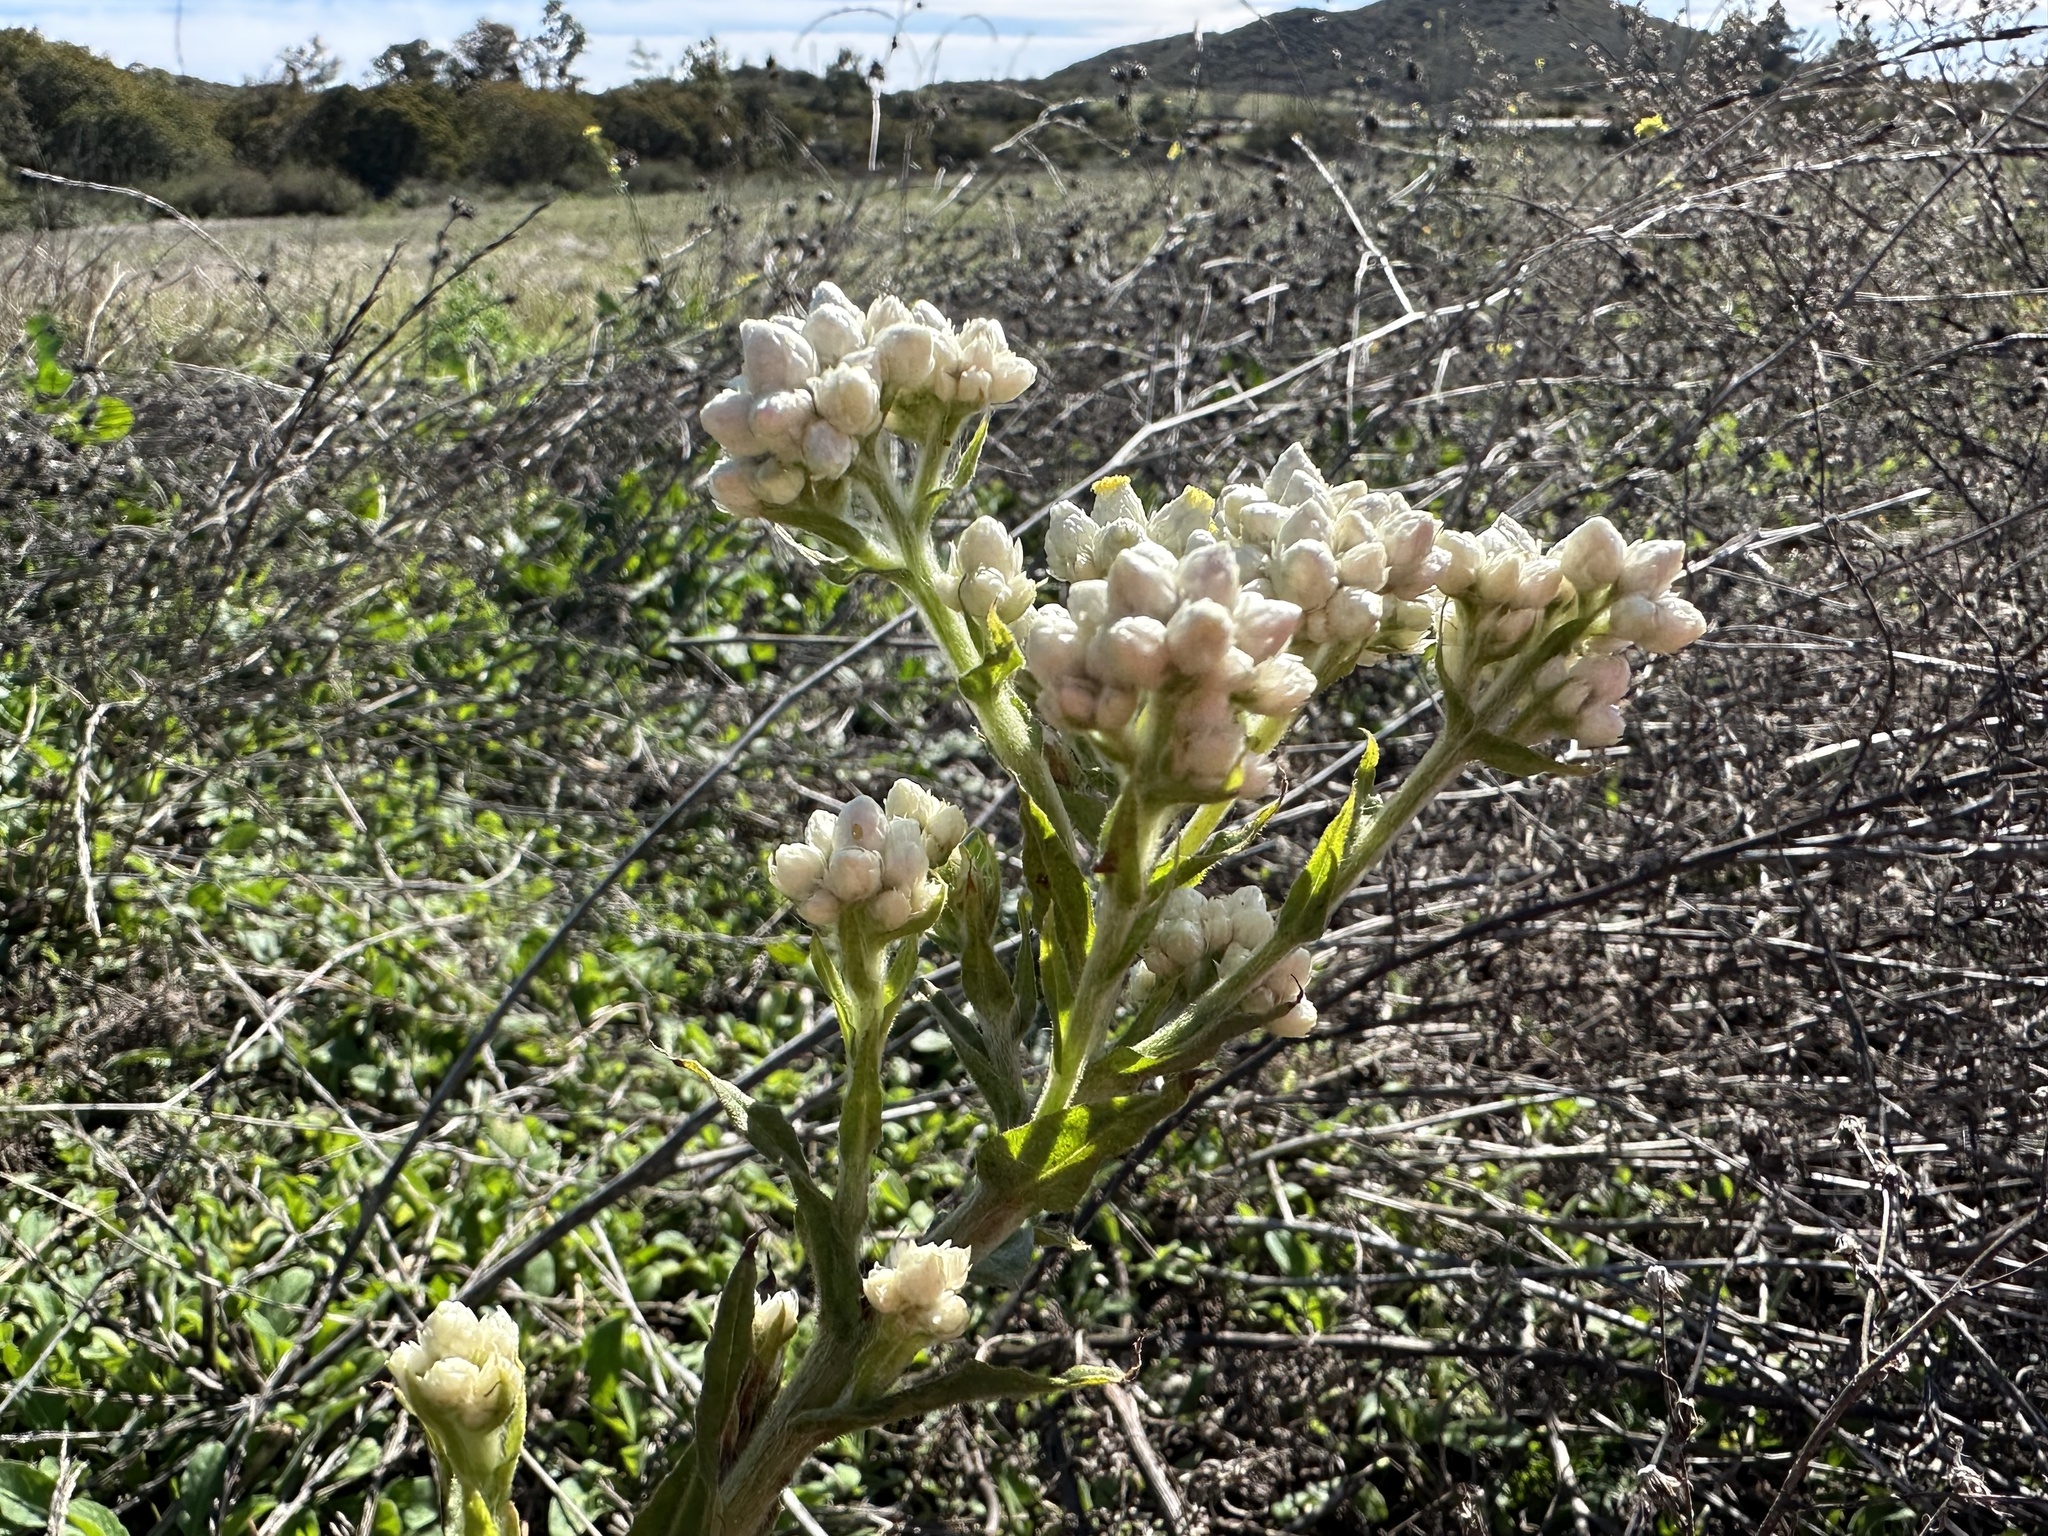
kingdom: Plantae
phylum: Tracheophyta
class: Magnoliopsida
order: Asterales
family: Asteraceae
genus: Pseudognaphalium
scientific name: Pseudognaphalium californicum
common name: California rabbit-tobacco
